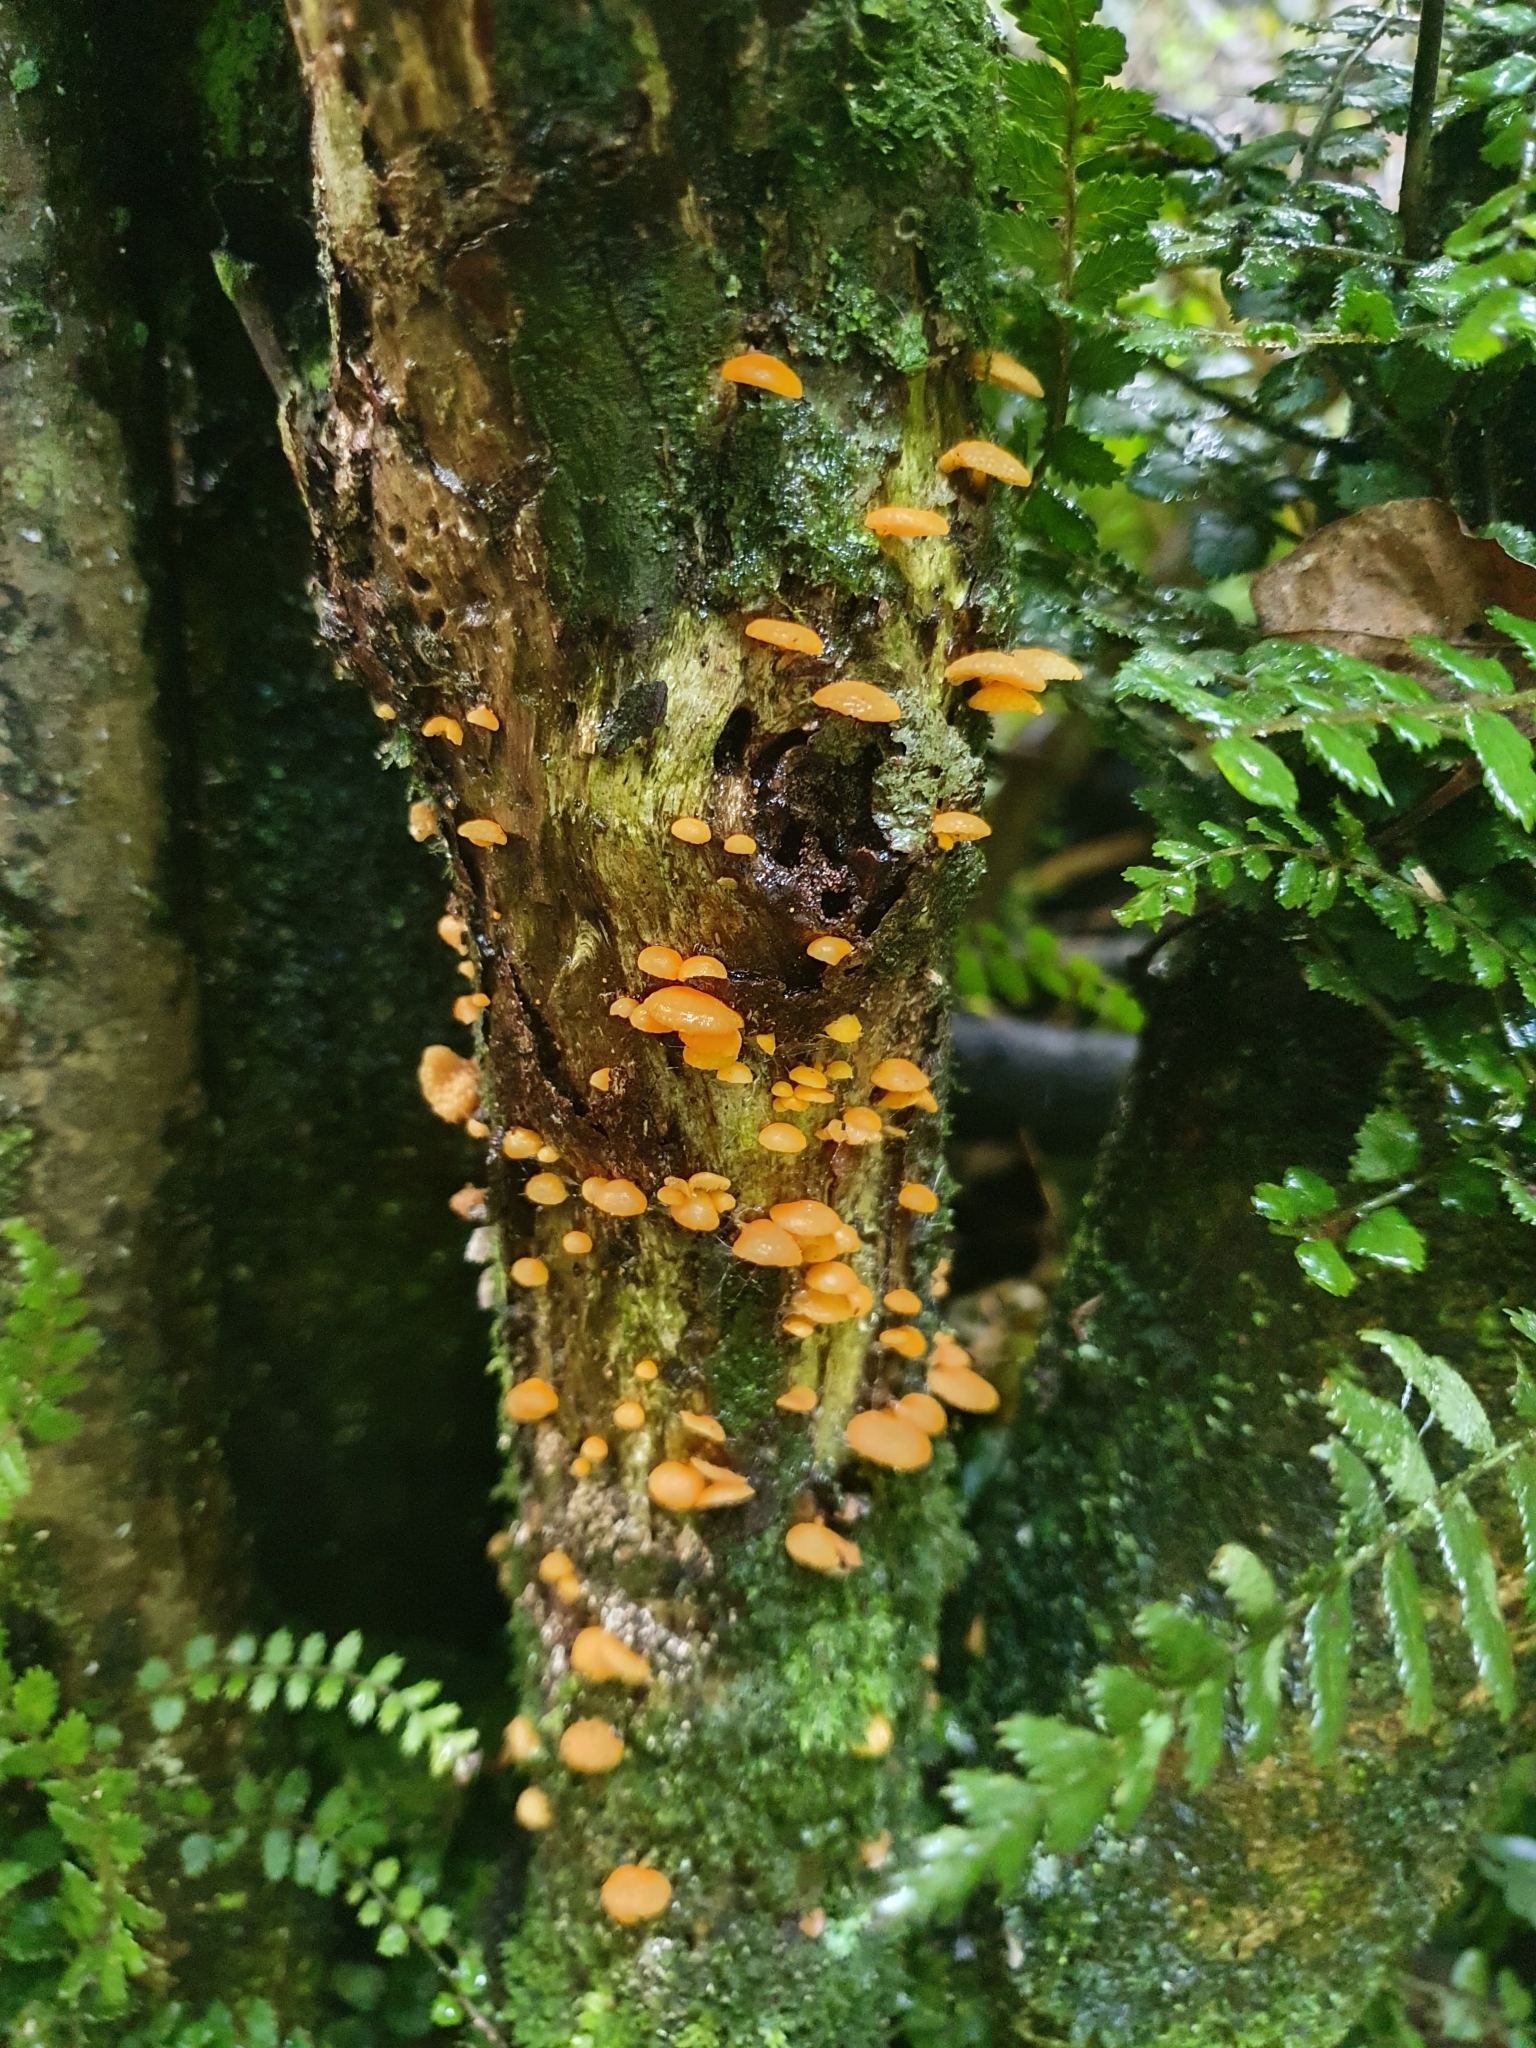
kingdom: Fungi
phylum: Basidiomycota
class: Agaricomycetes
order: Agaricales
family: Mycenaceae
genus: Favolaschia
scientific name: Favolaschia claudopus
